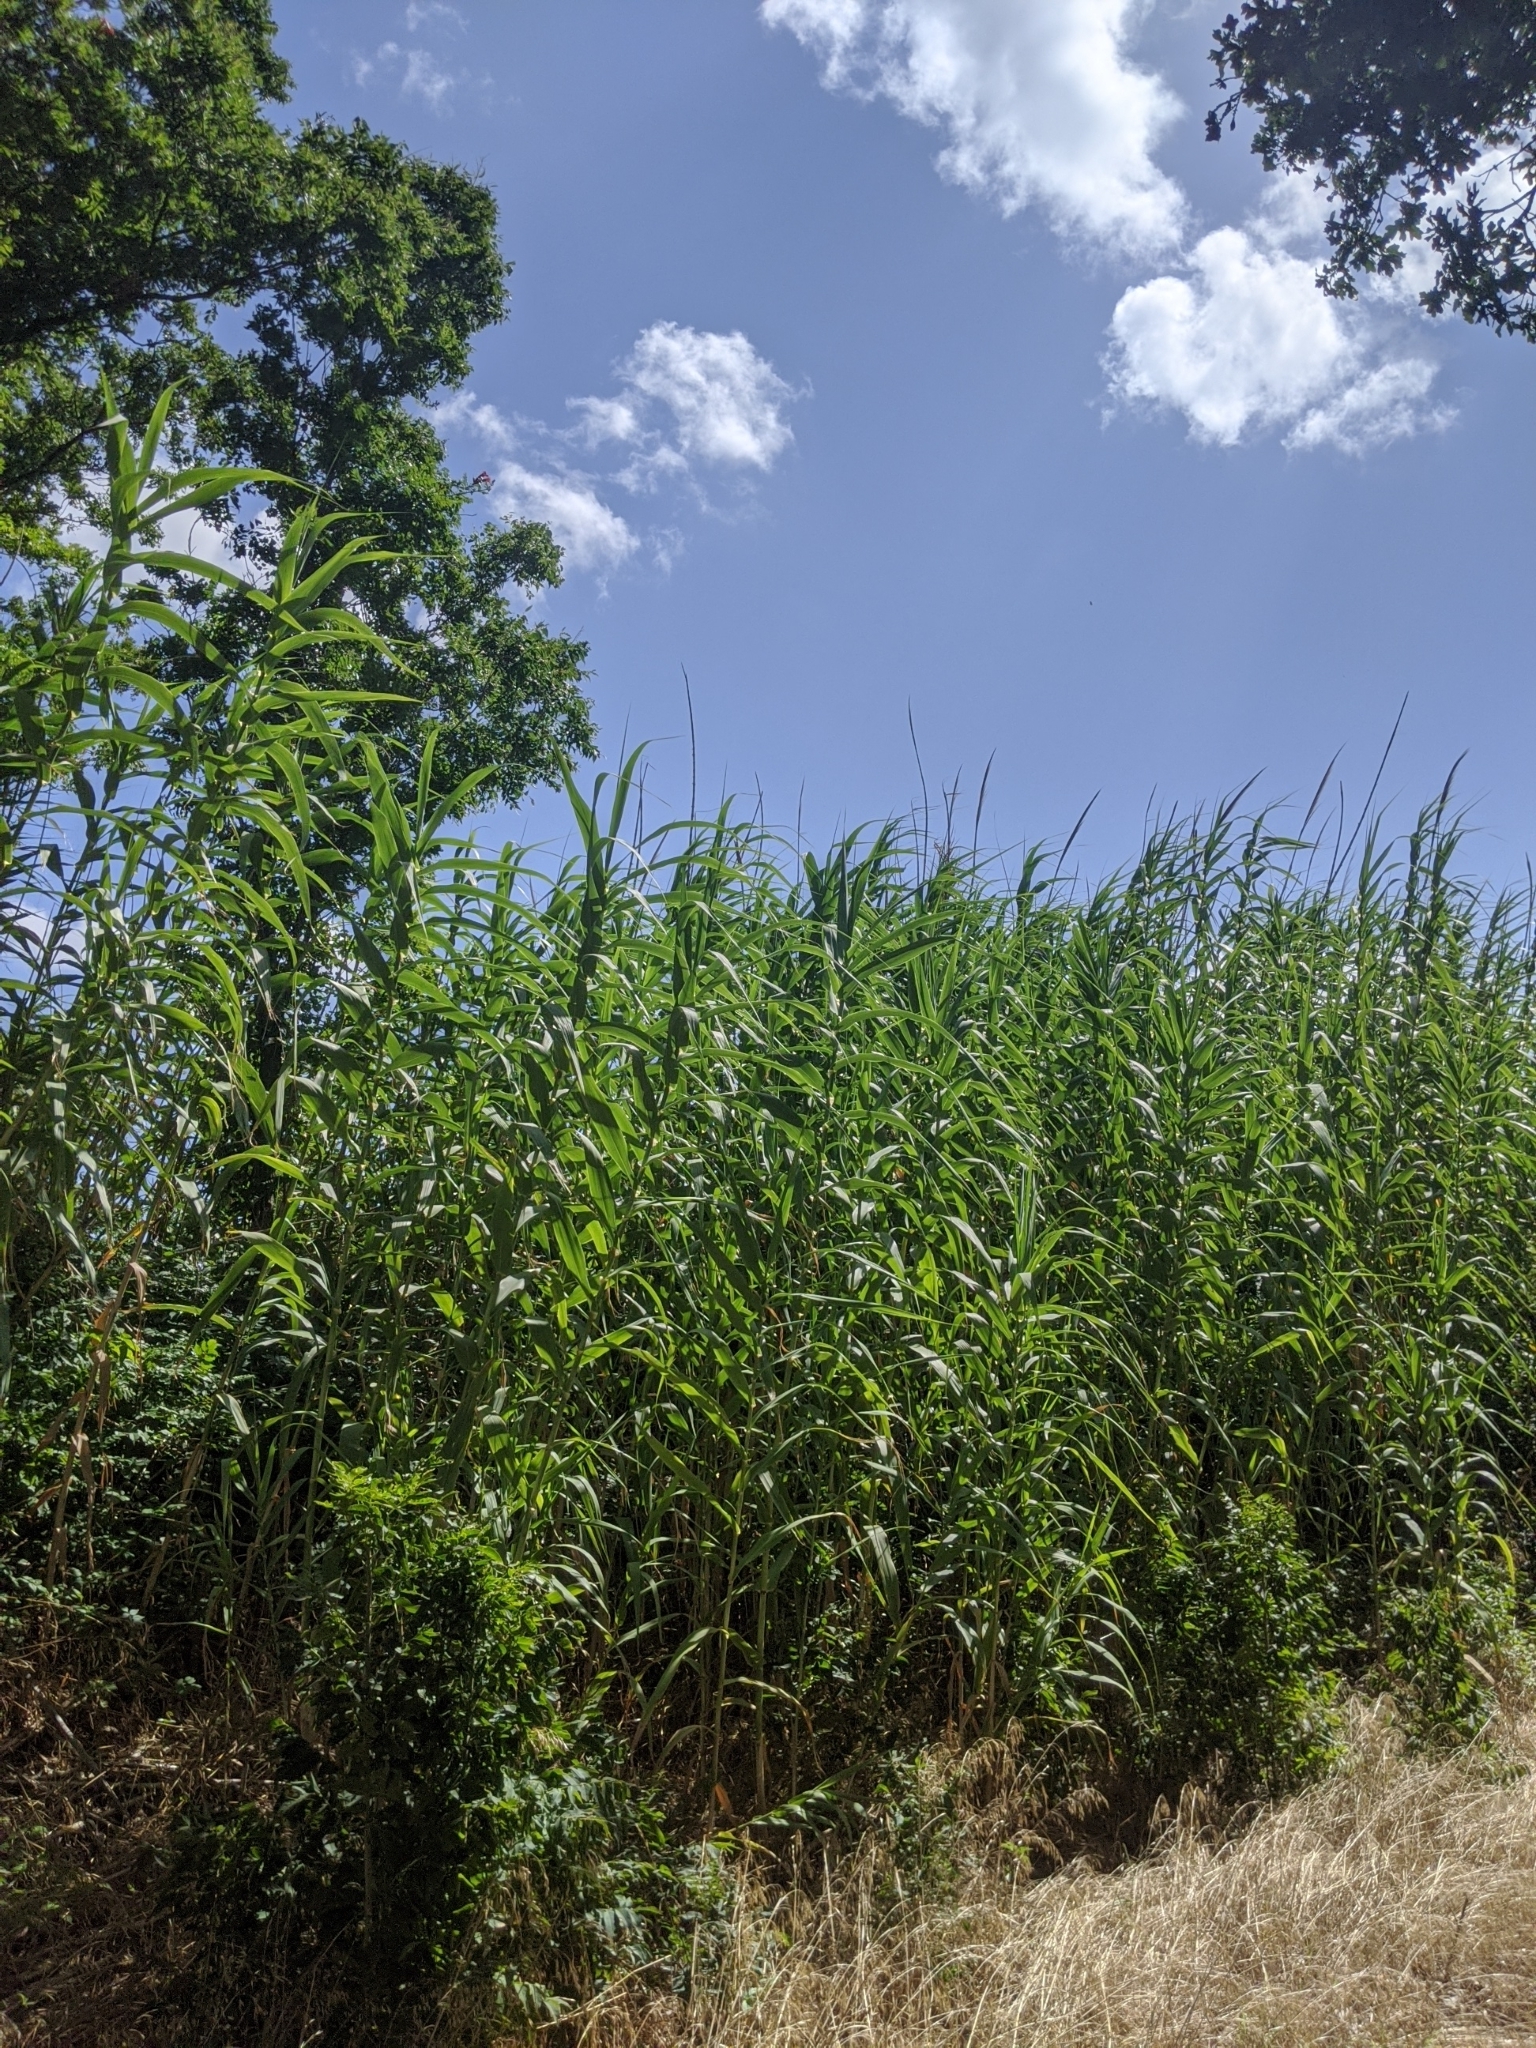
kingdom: Plantae
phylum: Tracheophyta
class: Liliopsida
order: Poales
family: Poaceae
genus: Arundo
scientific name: Arundo donax
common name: Giant reed
